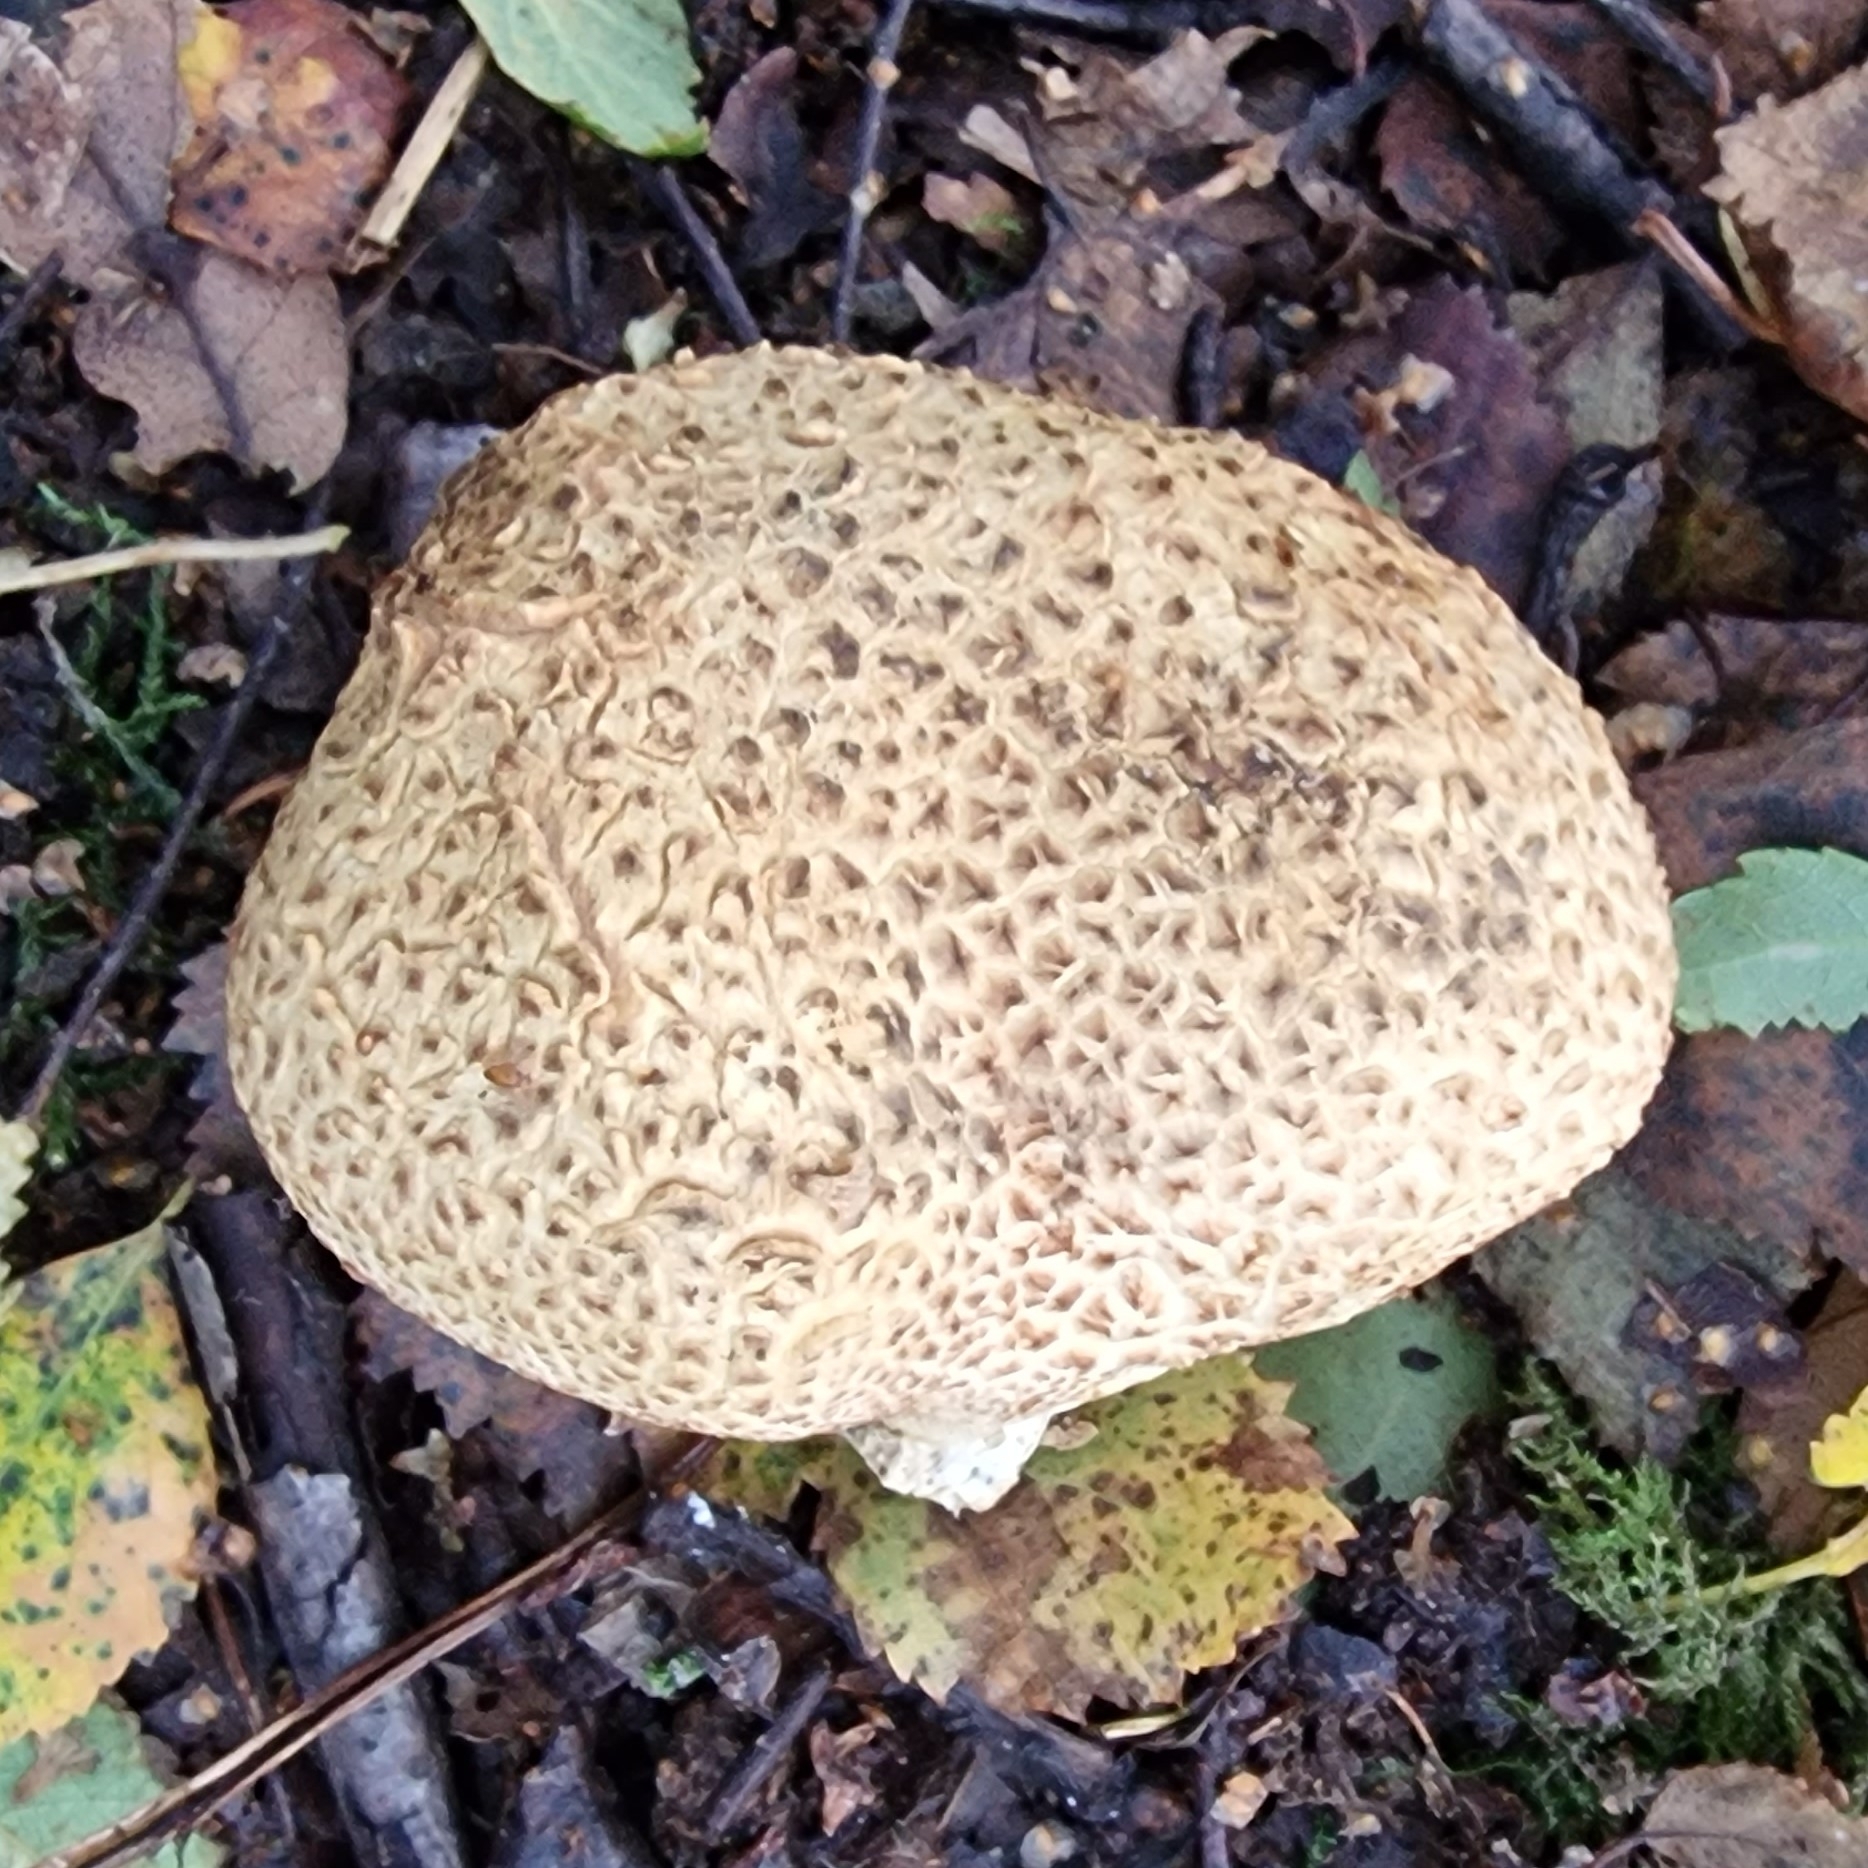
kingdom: Fungi
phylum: Basidiomycota
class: Agaricomycetes
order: Boletales
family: Sclerodermataceae
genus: Scleroderma
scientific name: Scleroderma citrinum
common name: Common earthball
